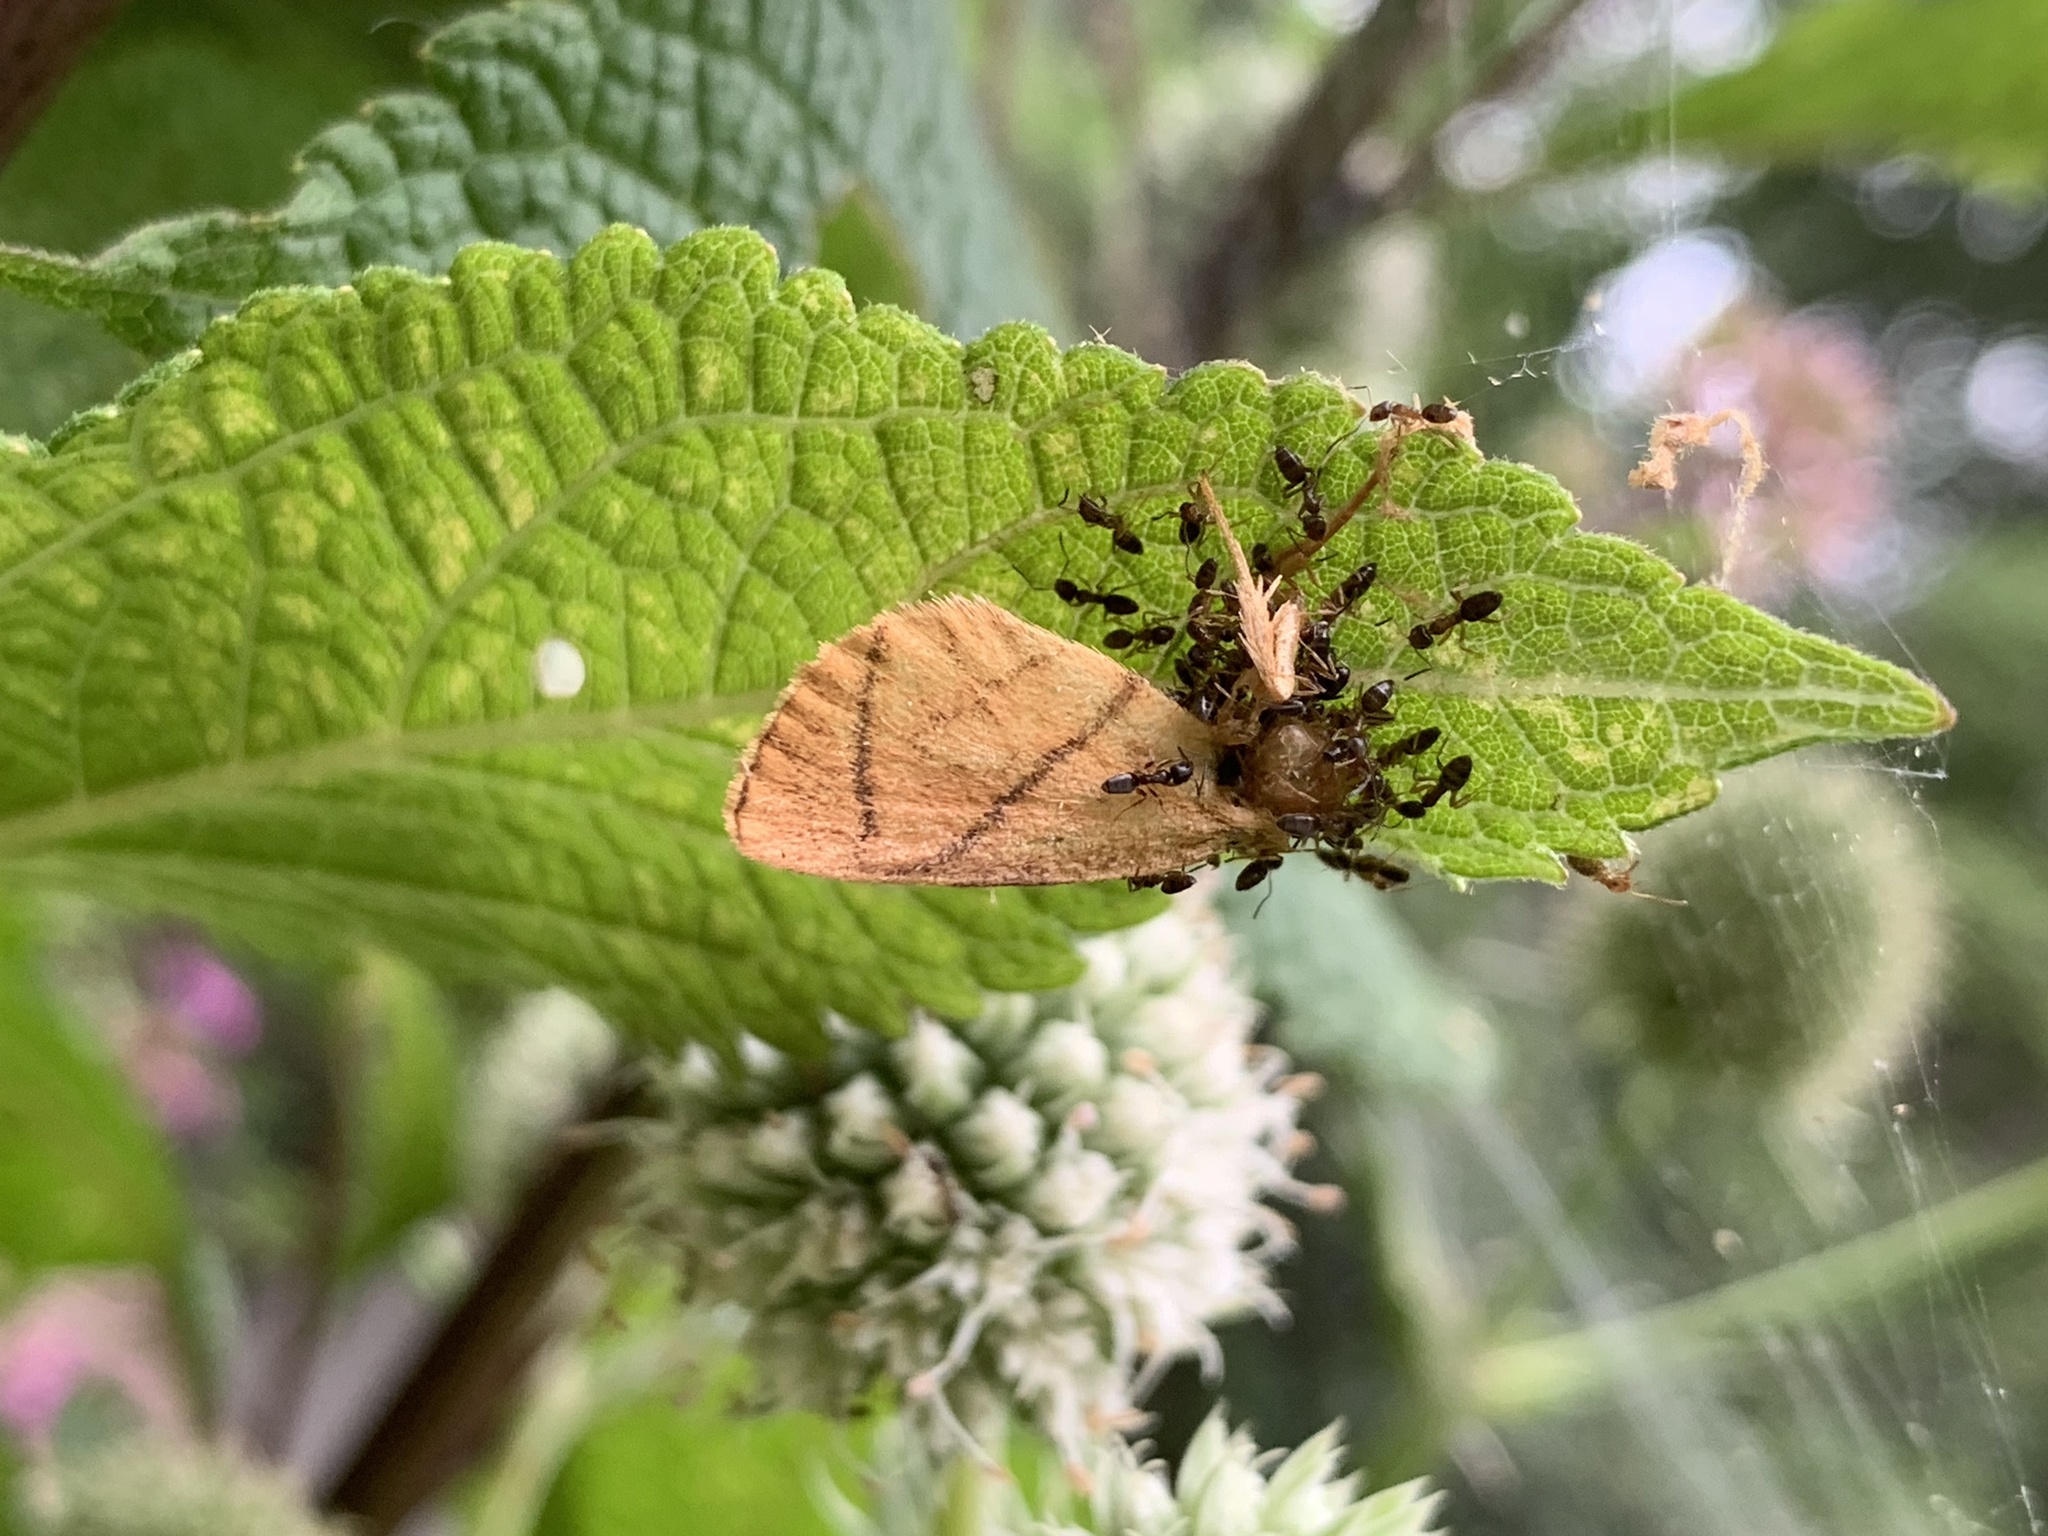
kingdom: Animalia
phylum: Arthropoda
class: Insecta
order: Lepidoptera
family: Limacodidae
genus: Apoda
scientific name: Apoda y-inversa
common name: Yellow-collared slug moth
